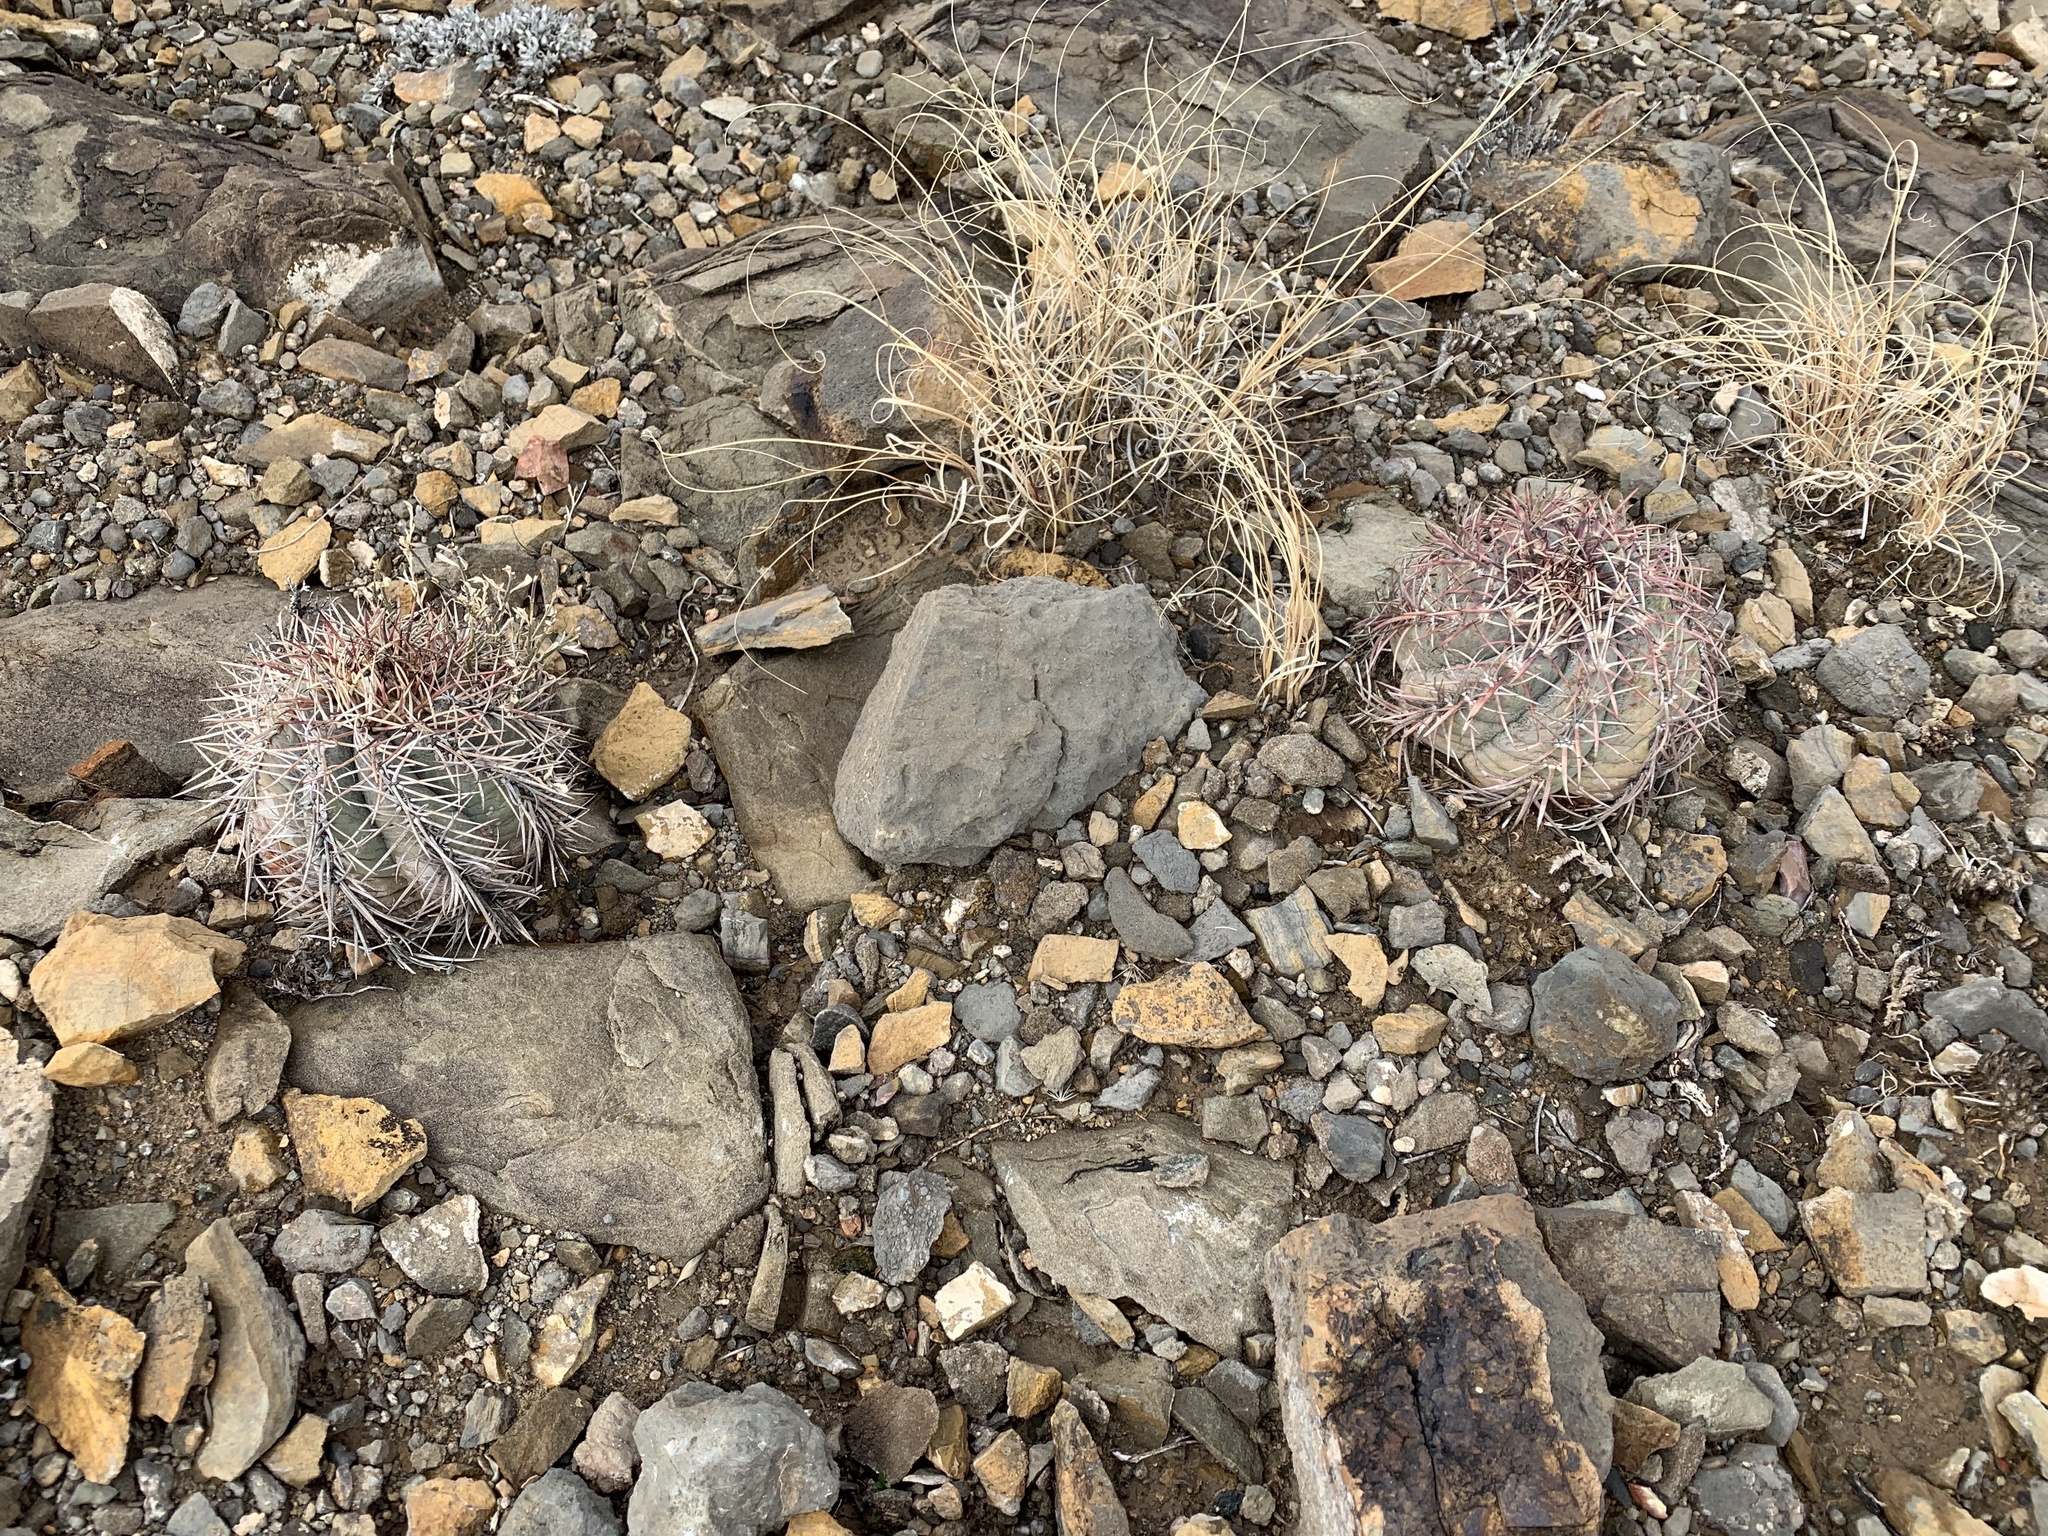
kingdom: Plantae
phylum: Tracheophyta
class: Magnoliopsida
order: Caryophyllales
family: Cactaceae
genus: Echinocactus
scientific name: Echinocactus horizonthalonius
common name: Devilshead
